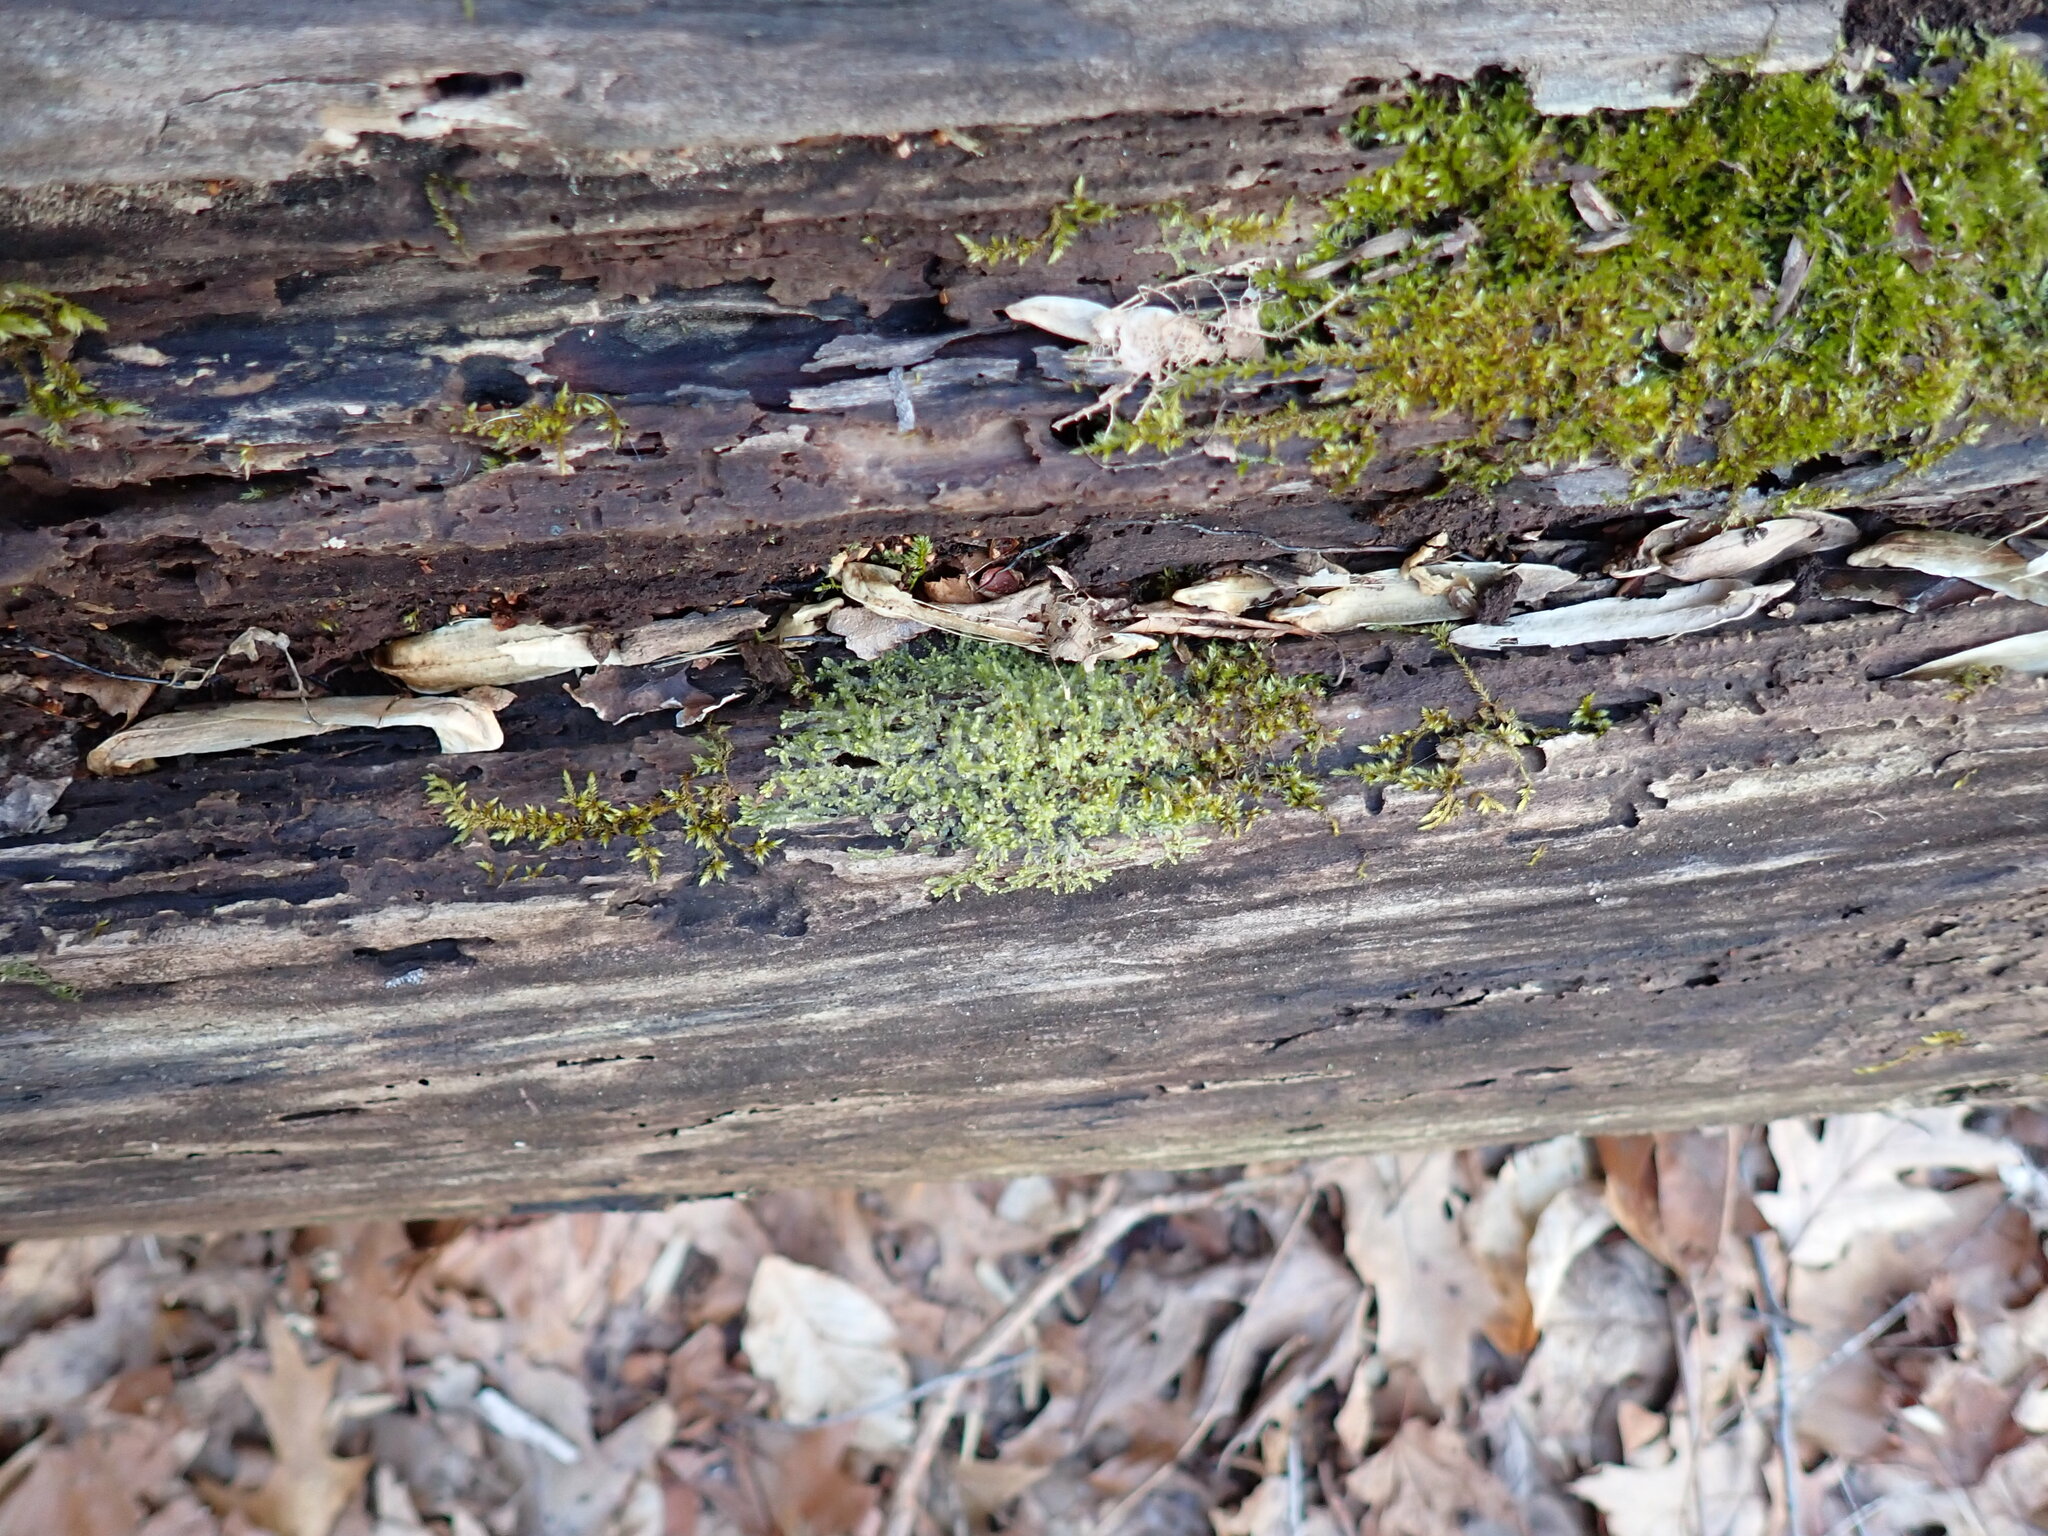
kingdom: Plantae
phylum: Marchantiophyta
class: Jungermanniopsida
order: Jungermanniales
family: Lophocoleaceae
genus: Lophocolea
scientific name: Lophocolea bidentata
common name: Bifid crestwort
